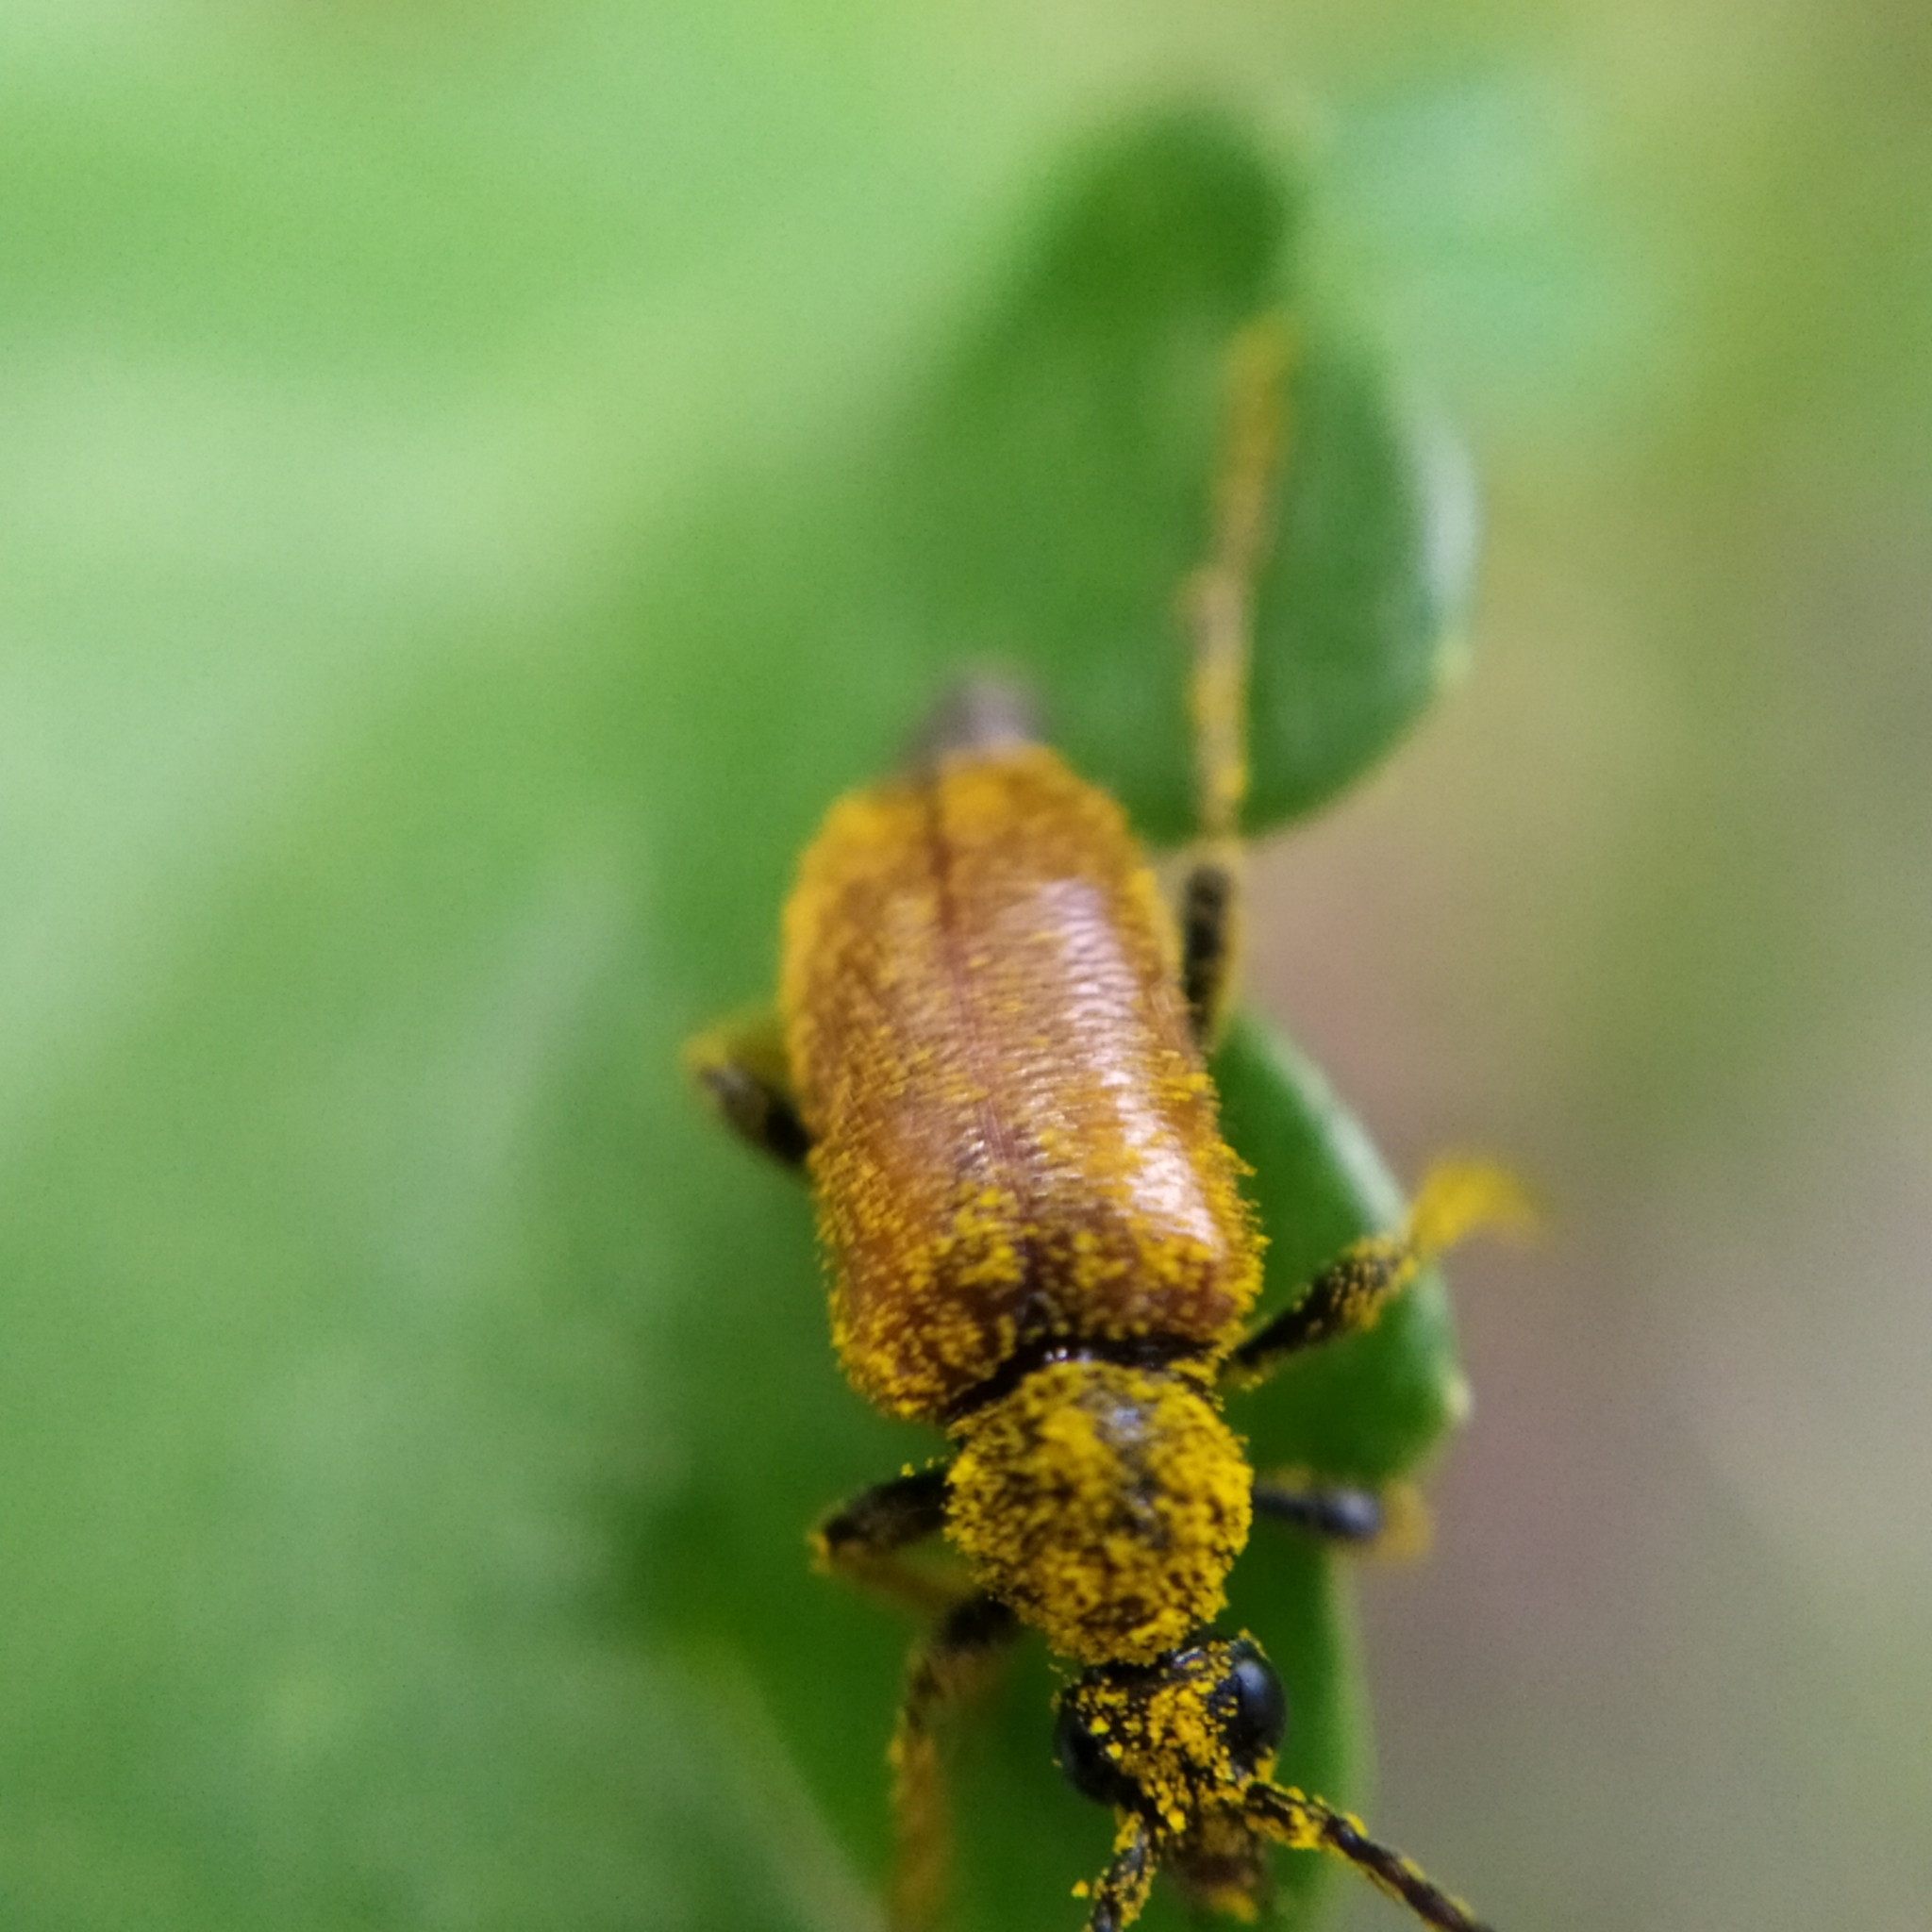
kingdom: Animalia
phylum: Arthropoda
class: Insecta
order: Coleoptera
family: Cerambycidae
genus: Pseudovadonia
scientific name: Pseudovadonia livida
